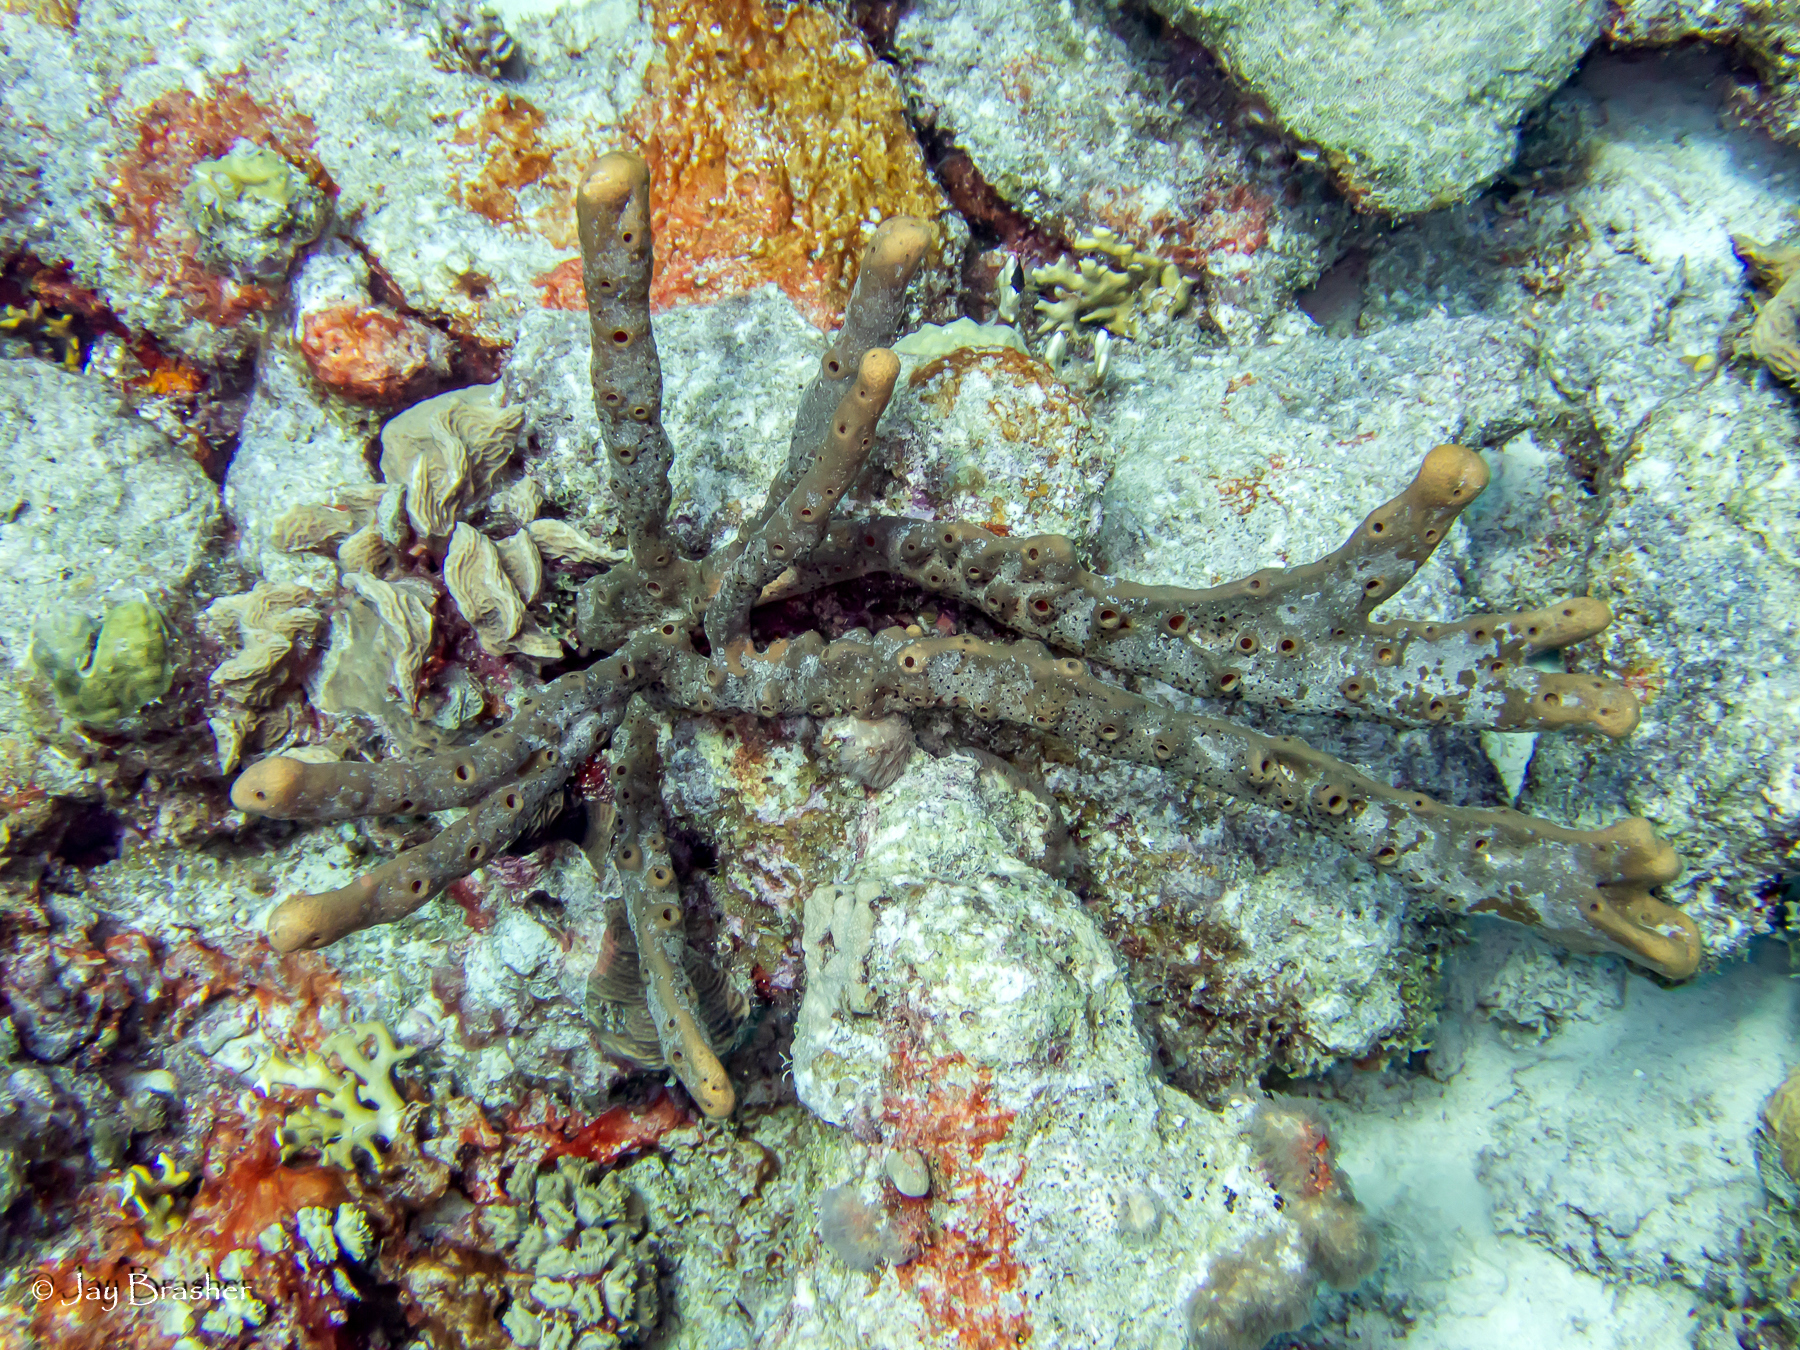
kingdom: Animalia
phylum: Porifera
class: Demospongiae
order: Agelasida
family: Agelasidae
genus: Agelas
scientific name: Agelas conifera
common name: Brown tube sponge
